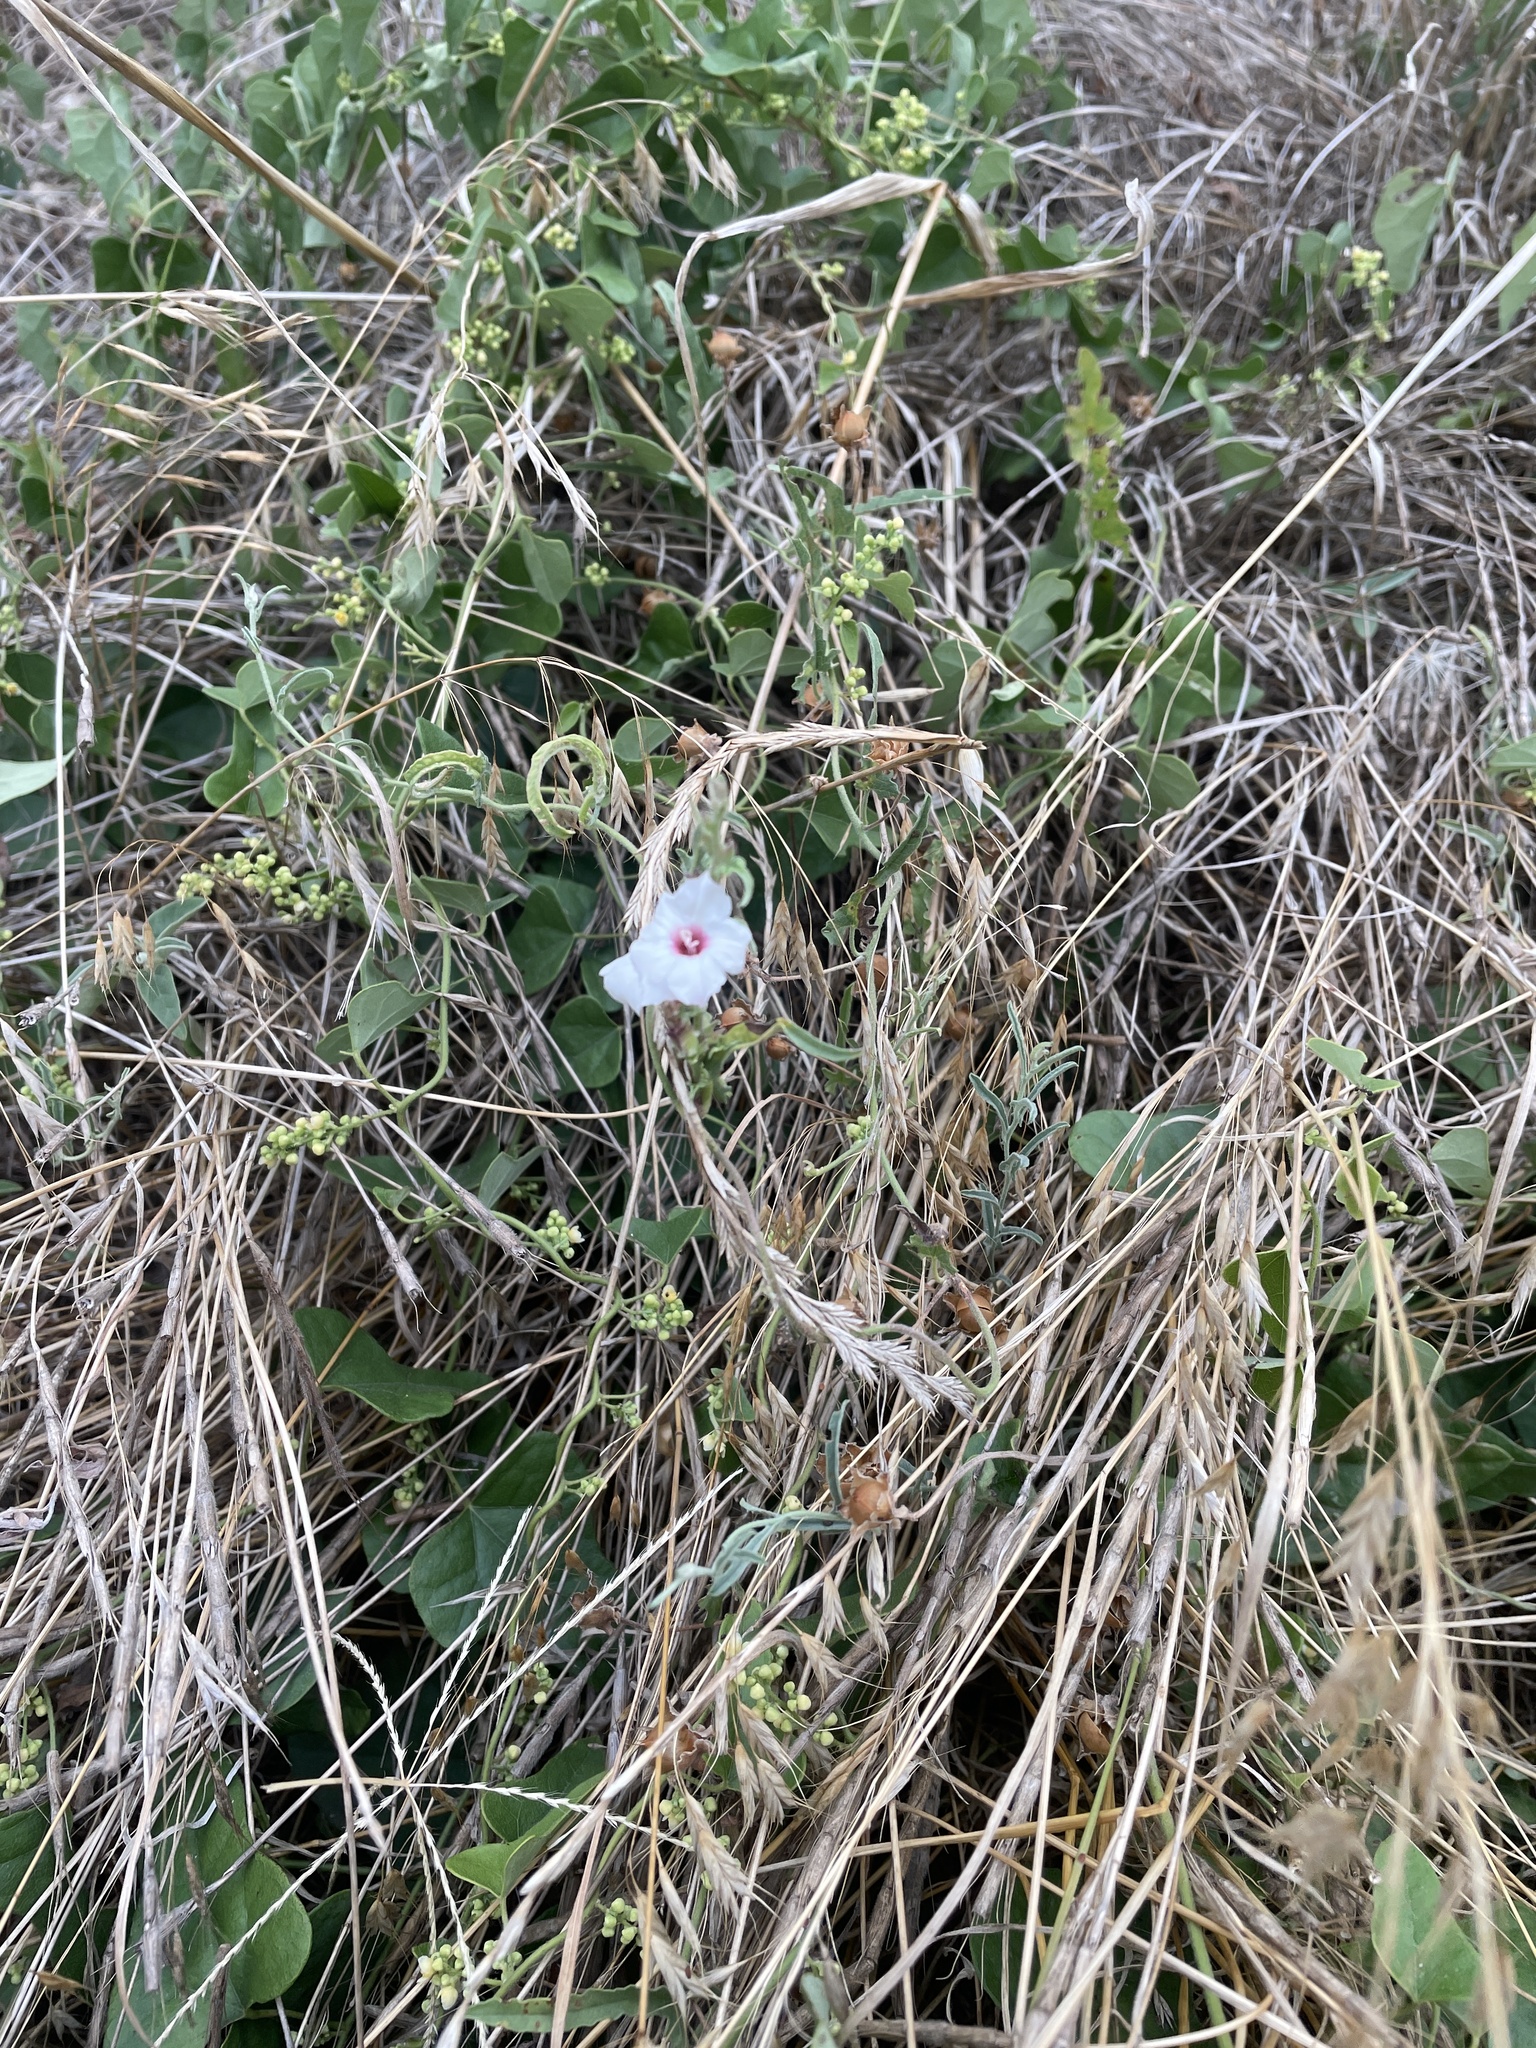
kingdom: Plantae
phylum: Tracheophyta
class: Magnoliopsida
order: Solanales
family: Convolvulaceae
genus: Convolvulus
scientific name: Convolvulus equitans
